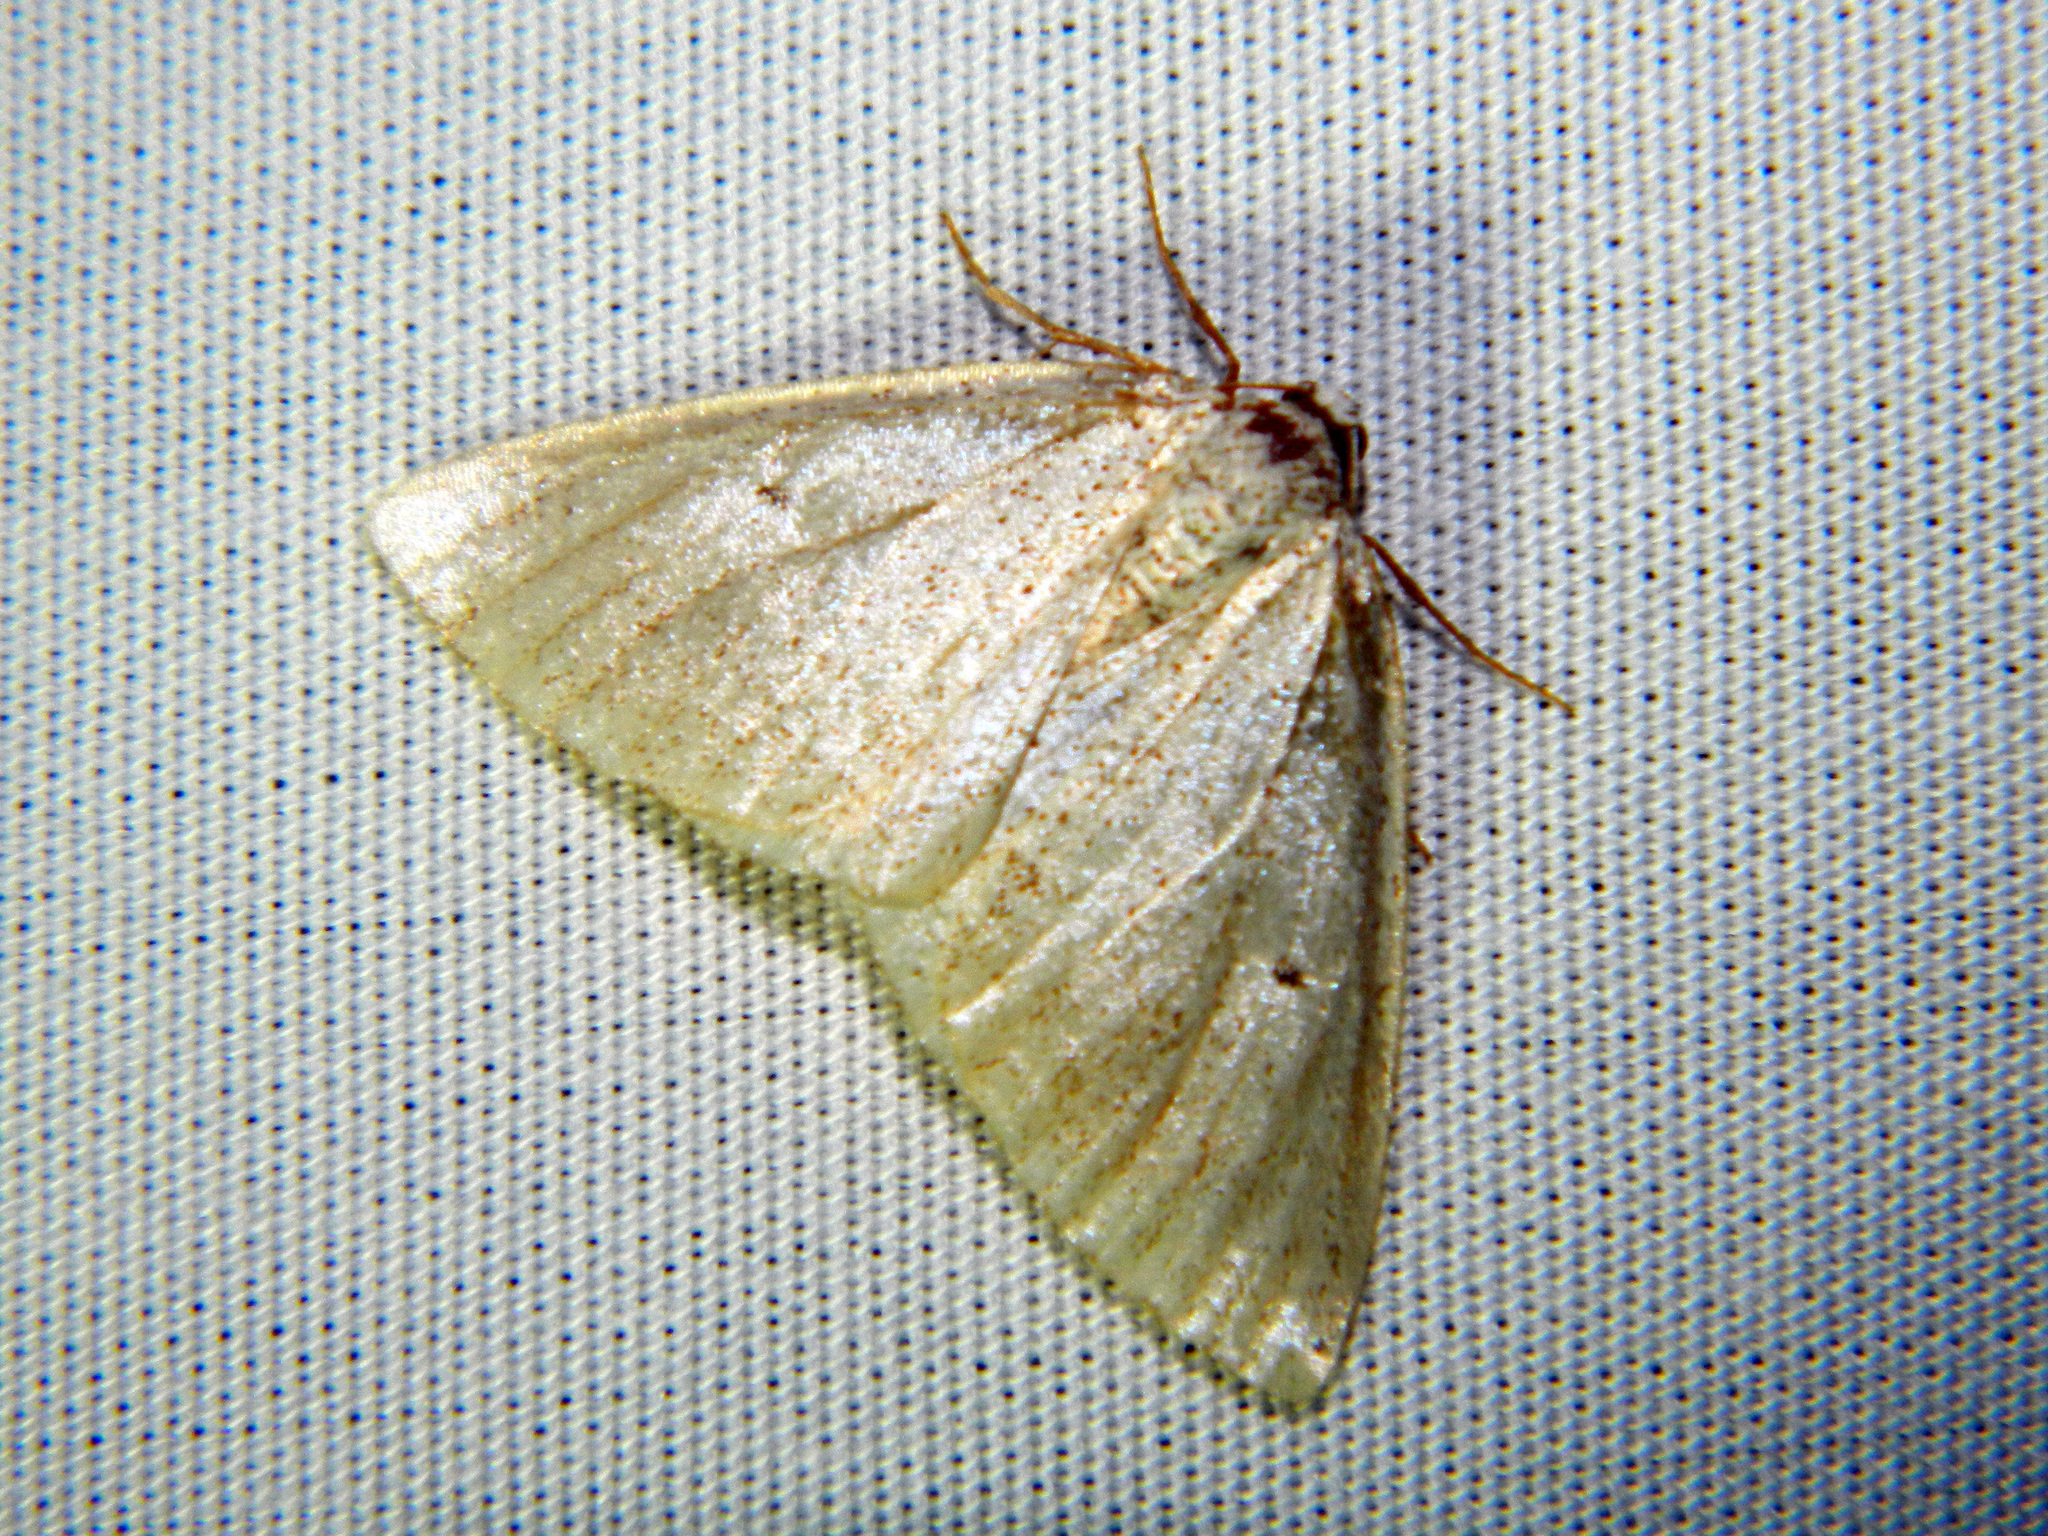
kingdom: Animalia
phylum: Arthropoda
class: Insecta
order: Lepidoptera
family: Geometridae
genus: Lomographa
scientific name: Lomographa glomeraria
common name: Gray spring moth
